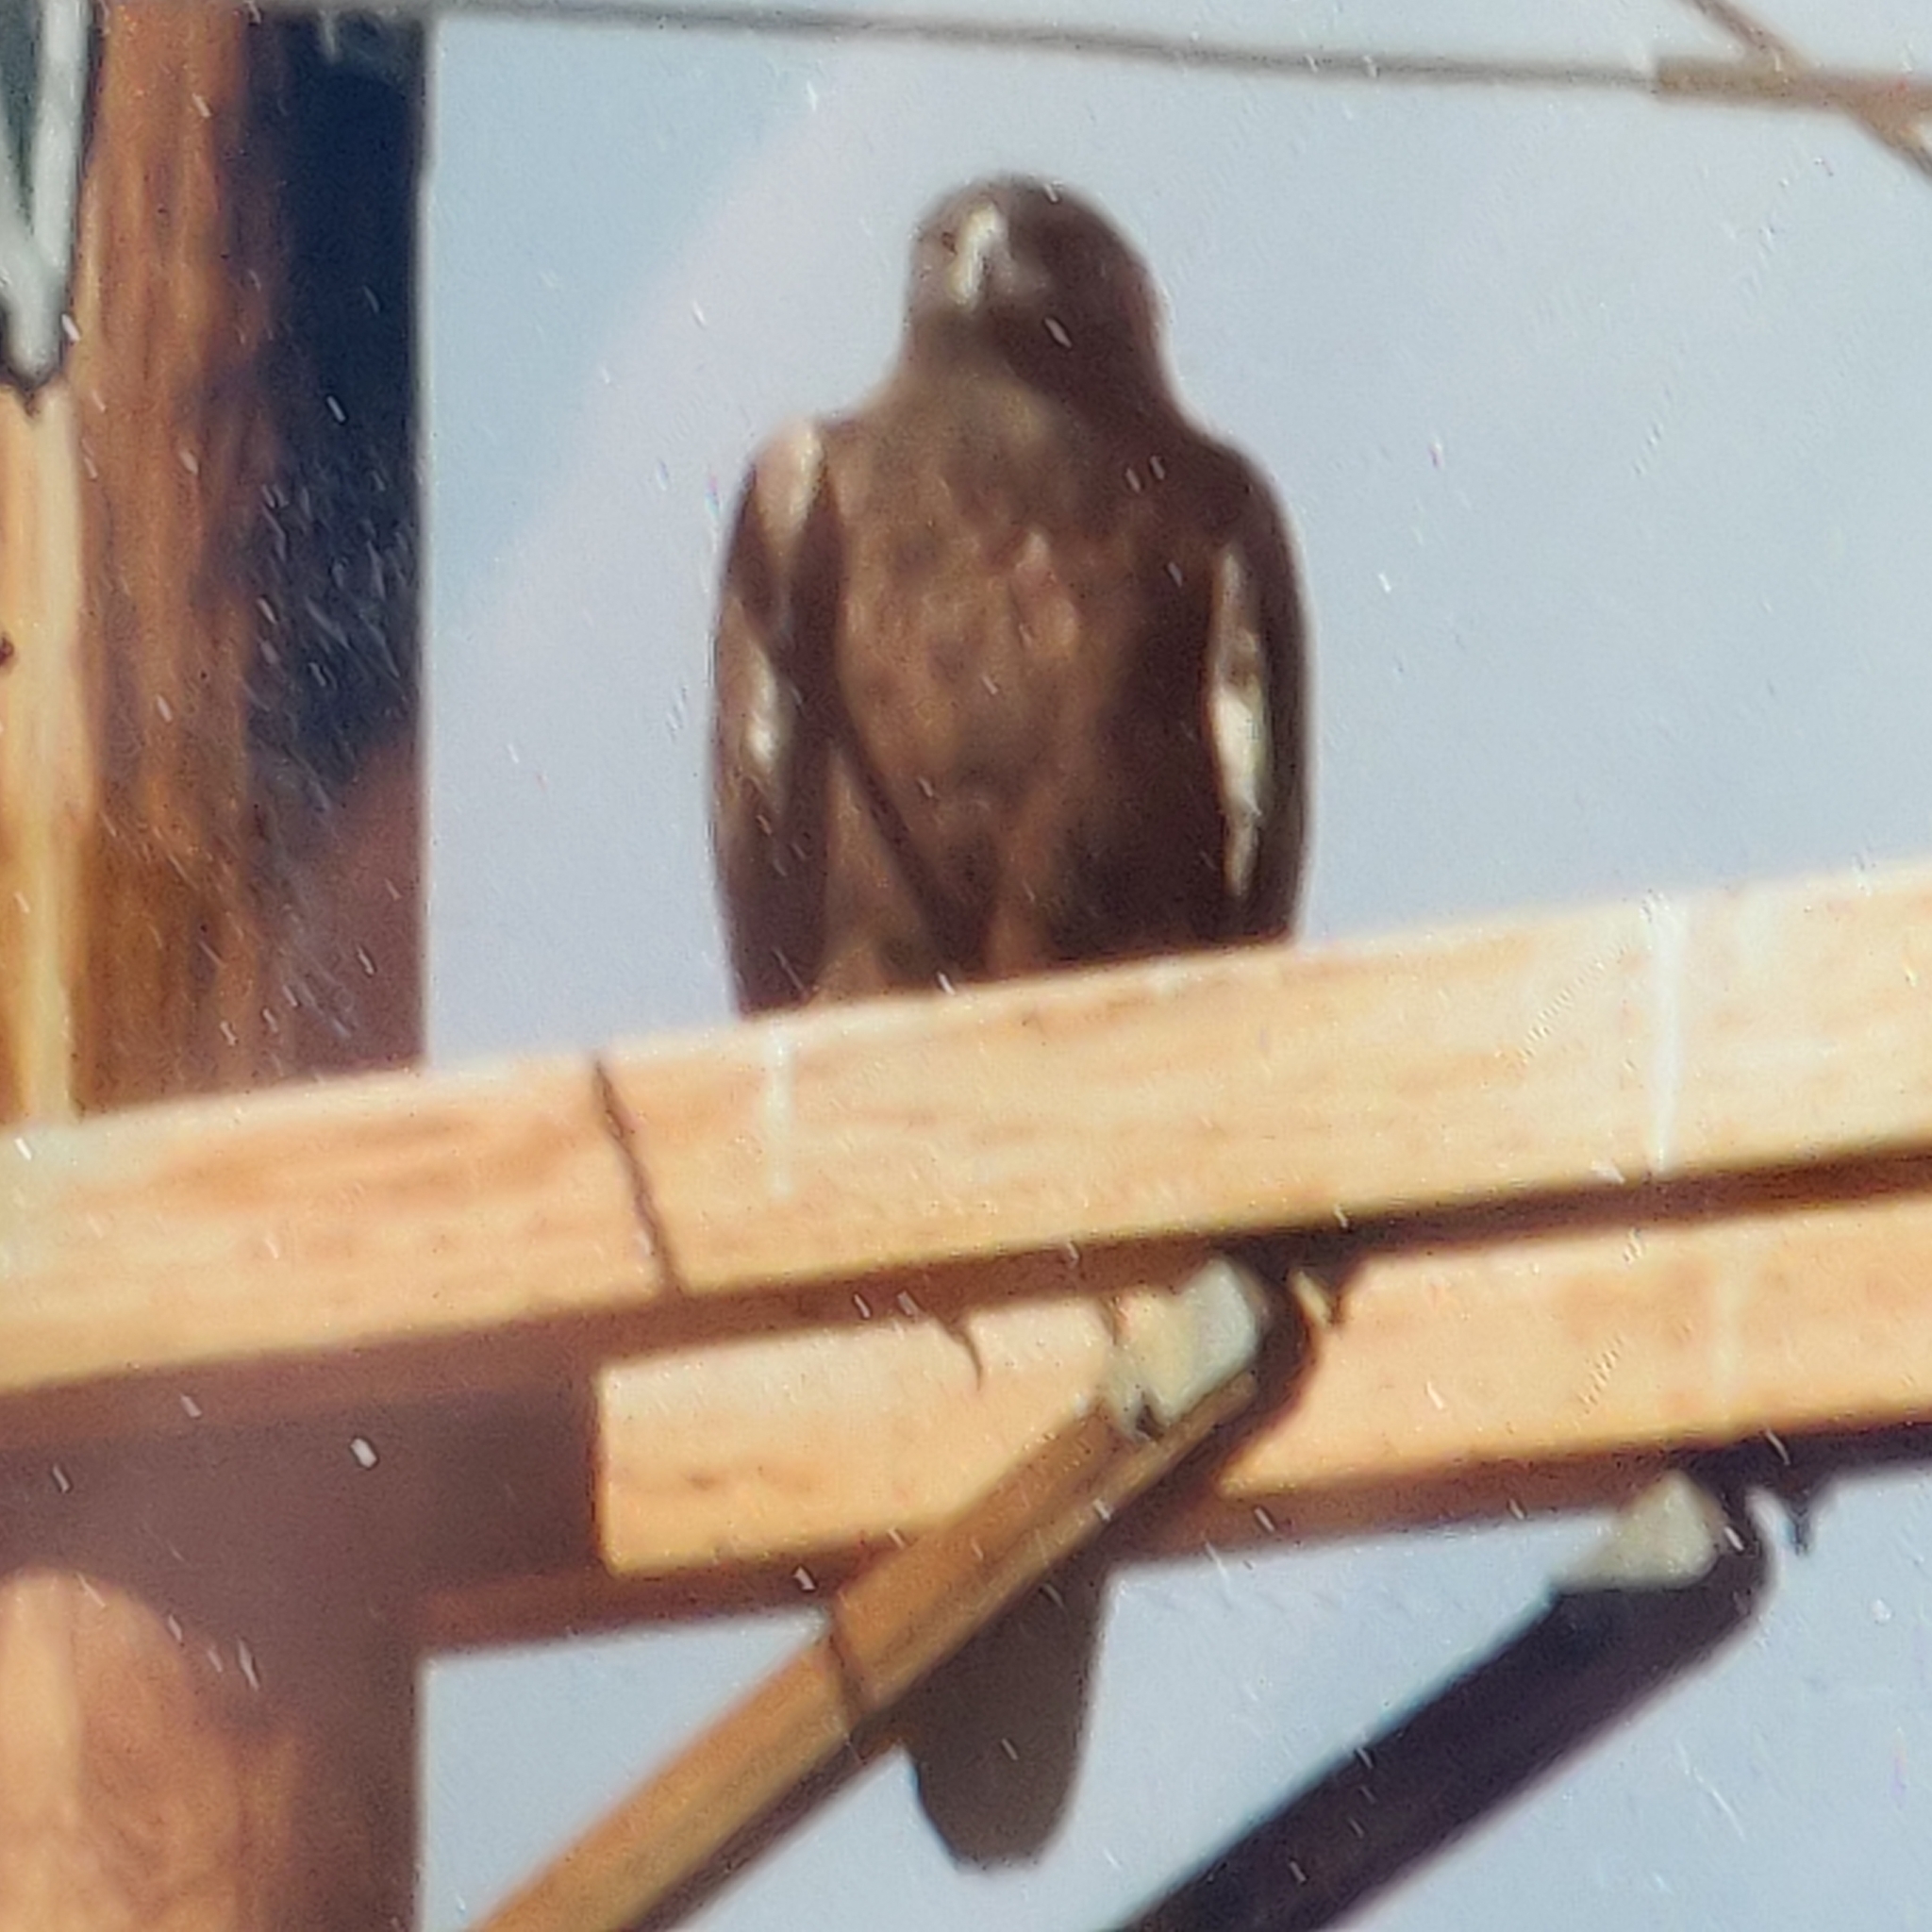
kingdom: Animalia
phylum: Chordata
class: Aves
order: Accipitriformes
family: Accipitridae
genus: Aquila
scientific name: Aquila chrysaetos
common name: Golden eagle
